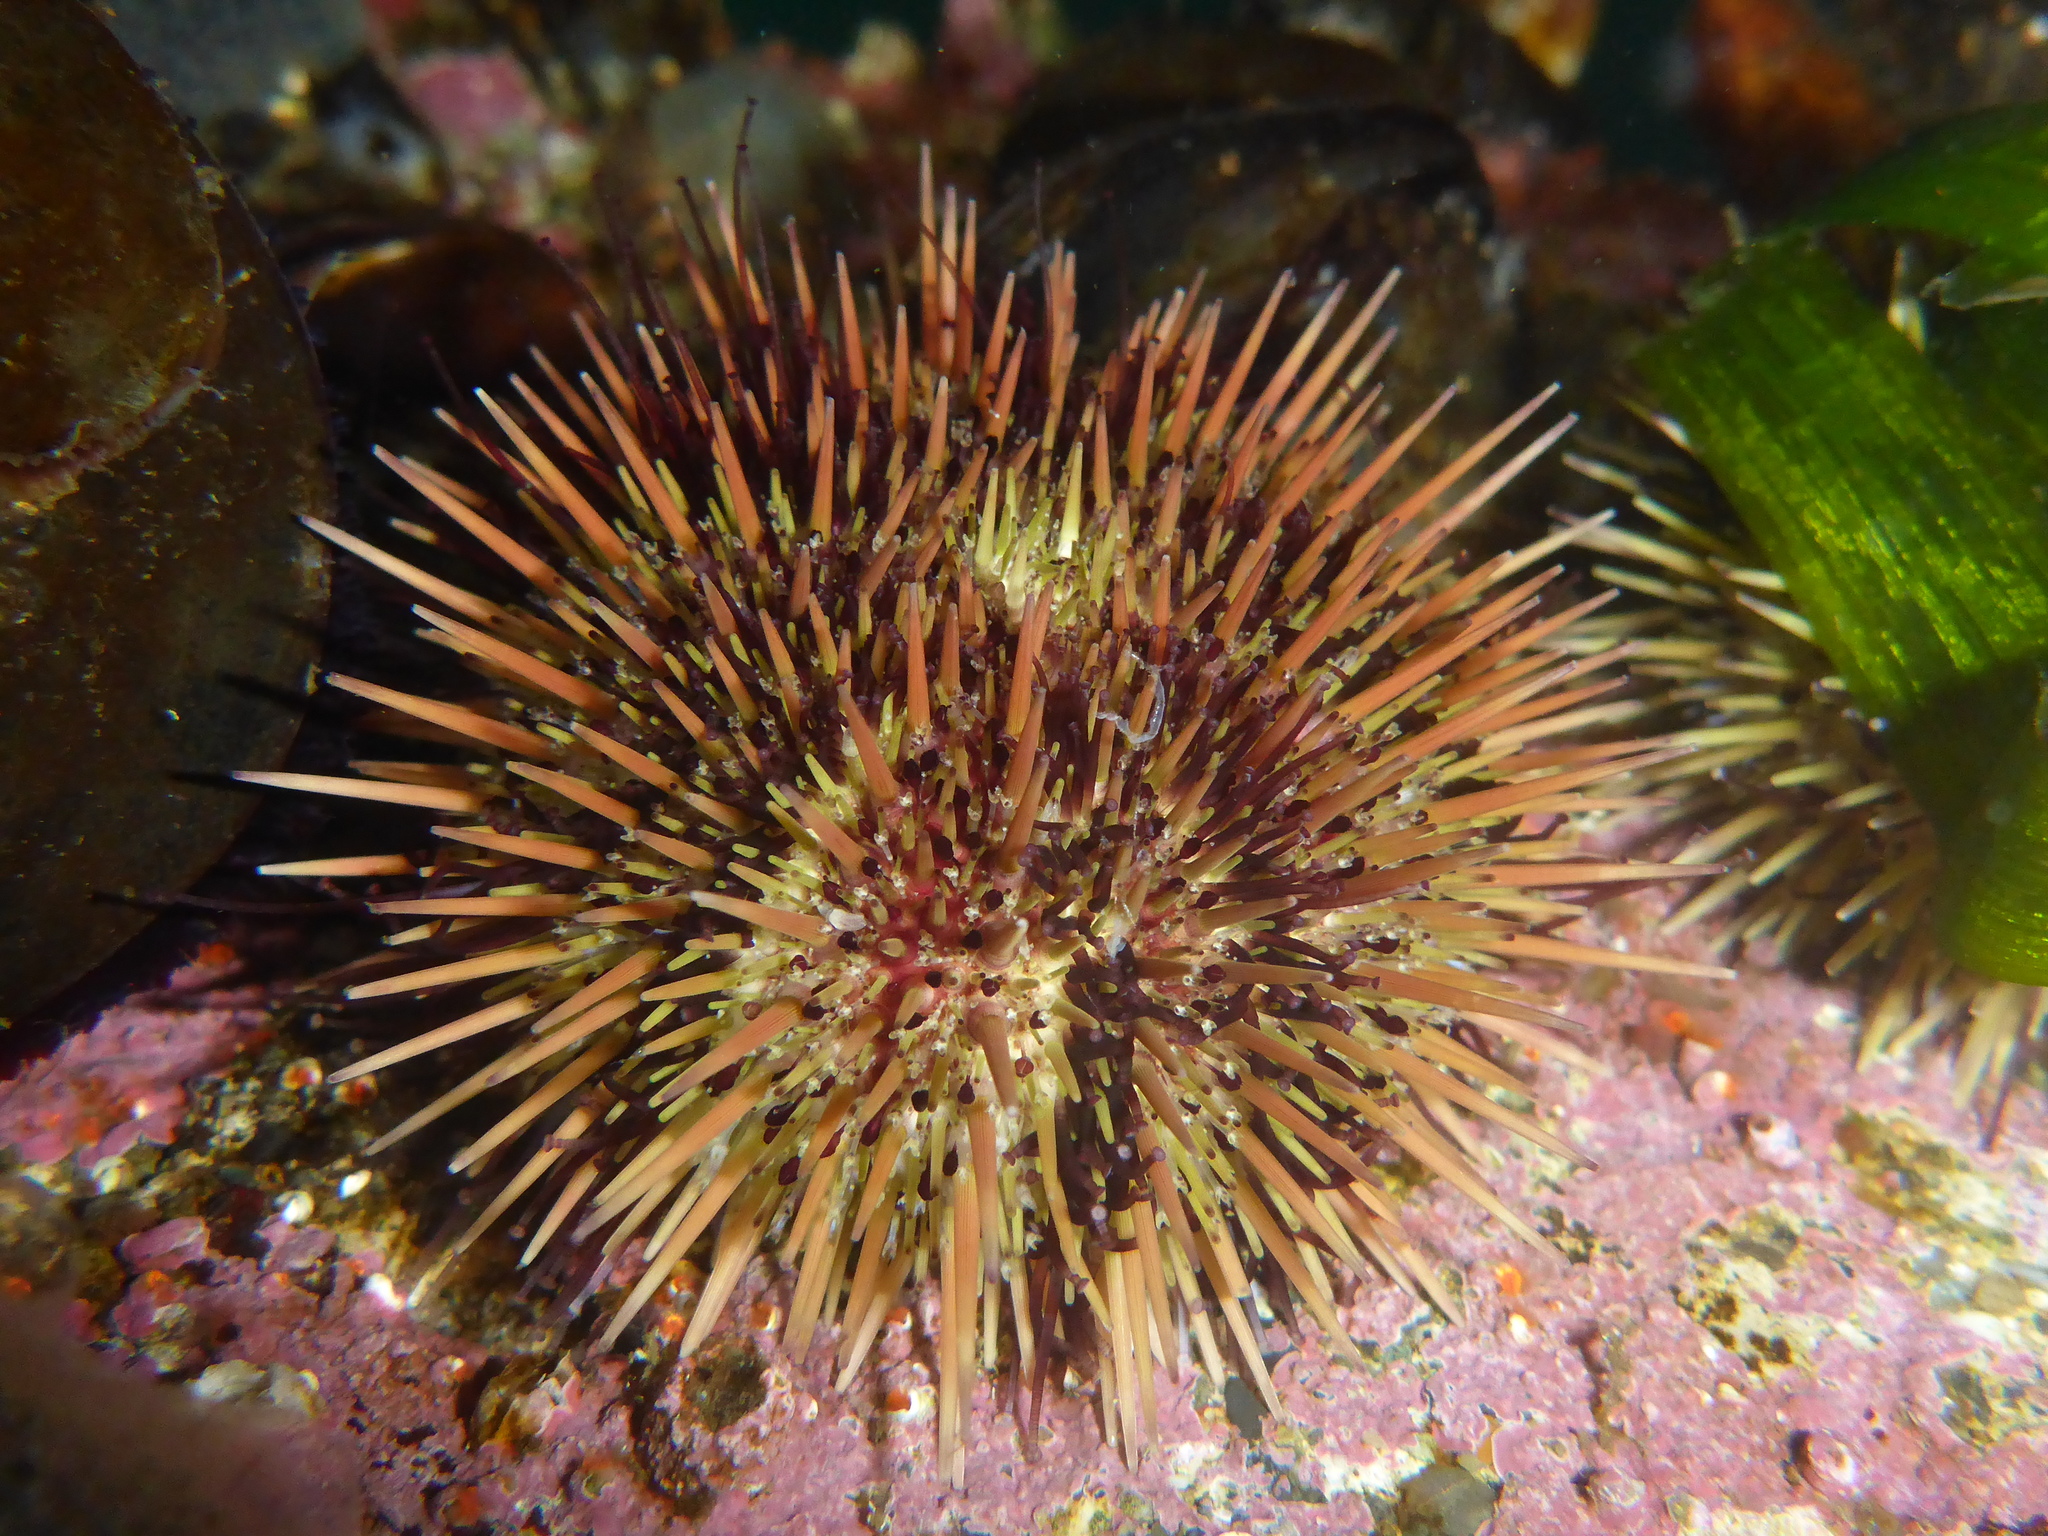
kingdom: Animalia
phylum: Echinodermata
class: Echinoidea
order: Camarodonta
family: Strongylocentrotidae
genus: Strongylocentrotus
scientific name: Strongylocentrotus droebachiensis
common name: Northern sea urchin
